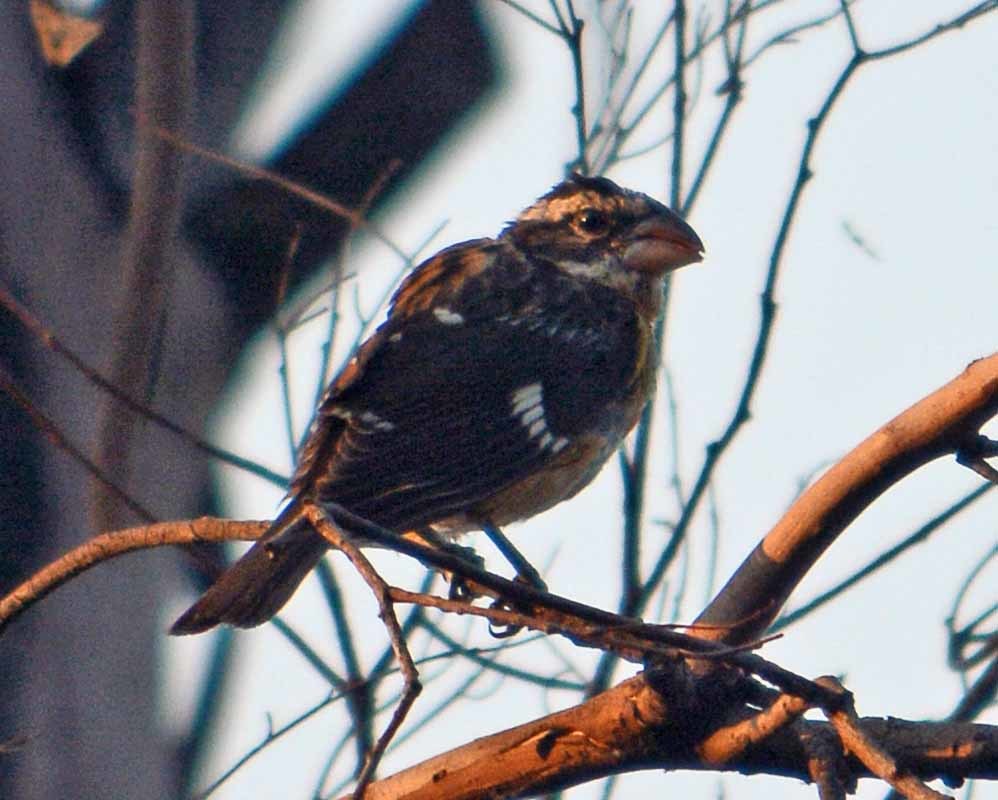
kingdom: Animalia
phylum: Chordata
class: Aves
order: Passeriformes
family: Cardinalidae
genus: Pheucticus
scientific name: Pheucticus melanocephalus
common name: Black-headed grosbeak
